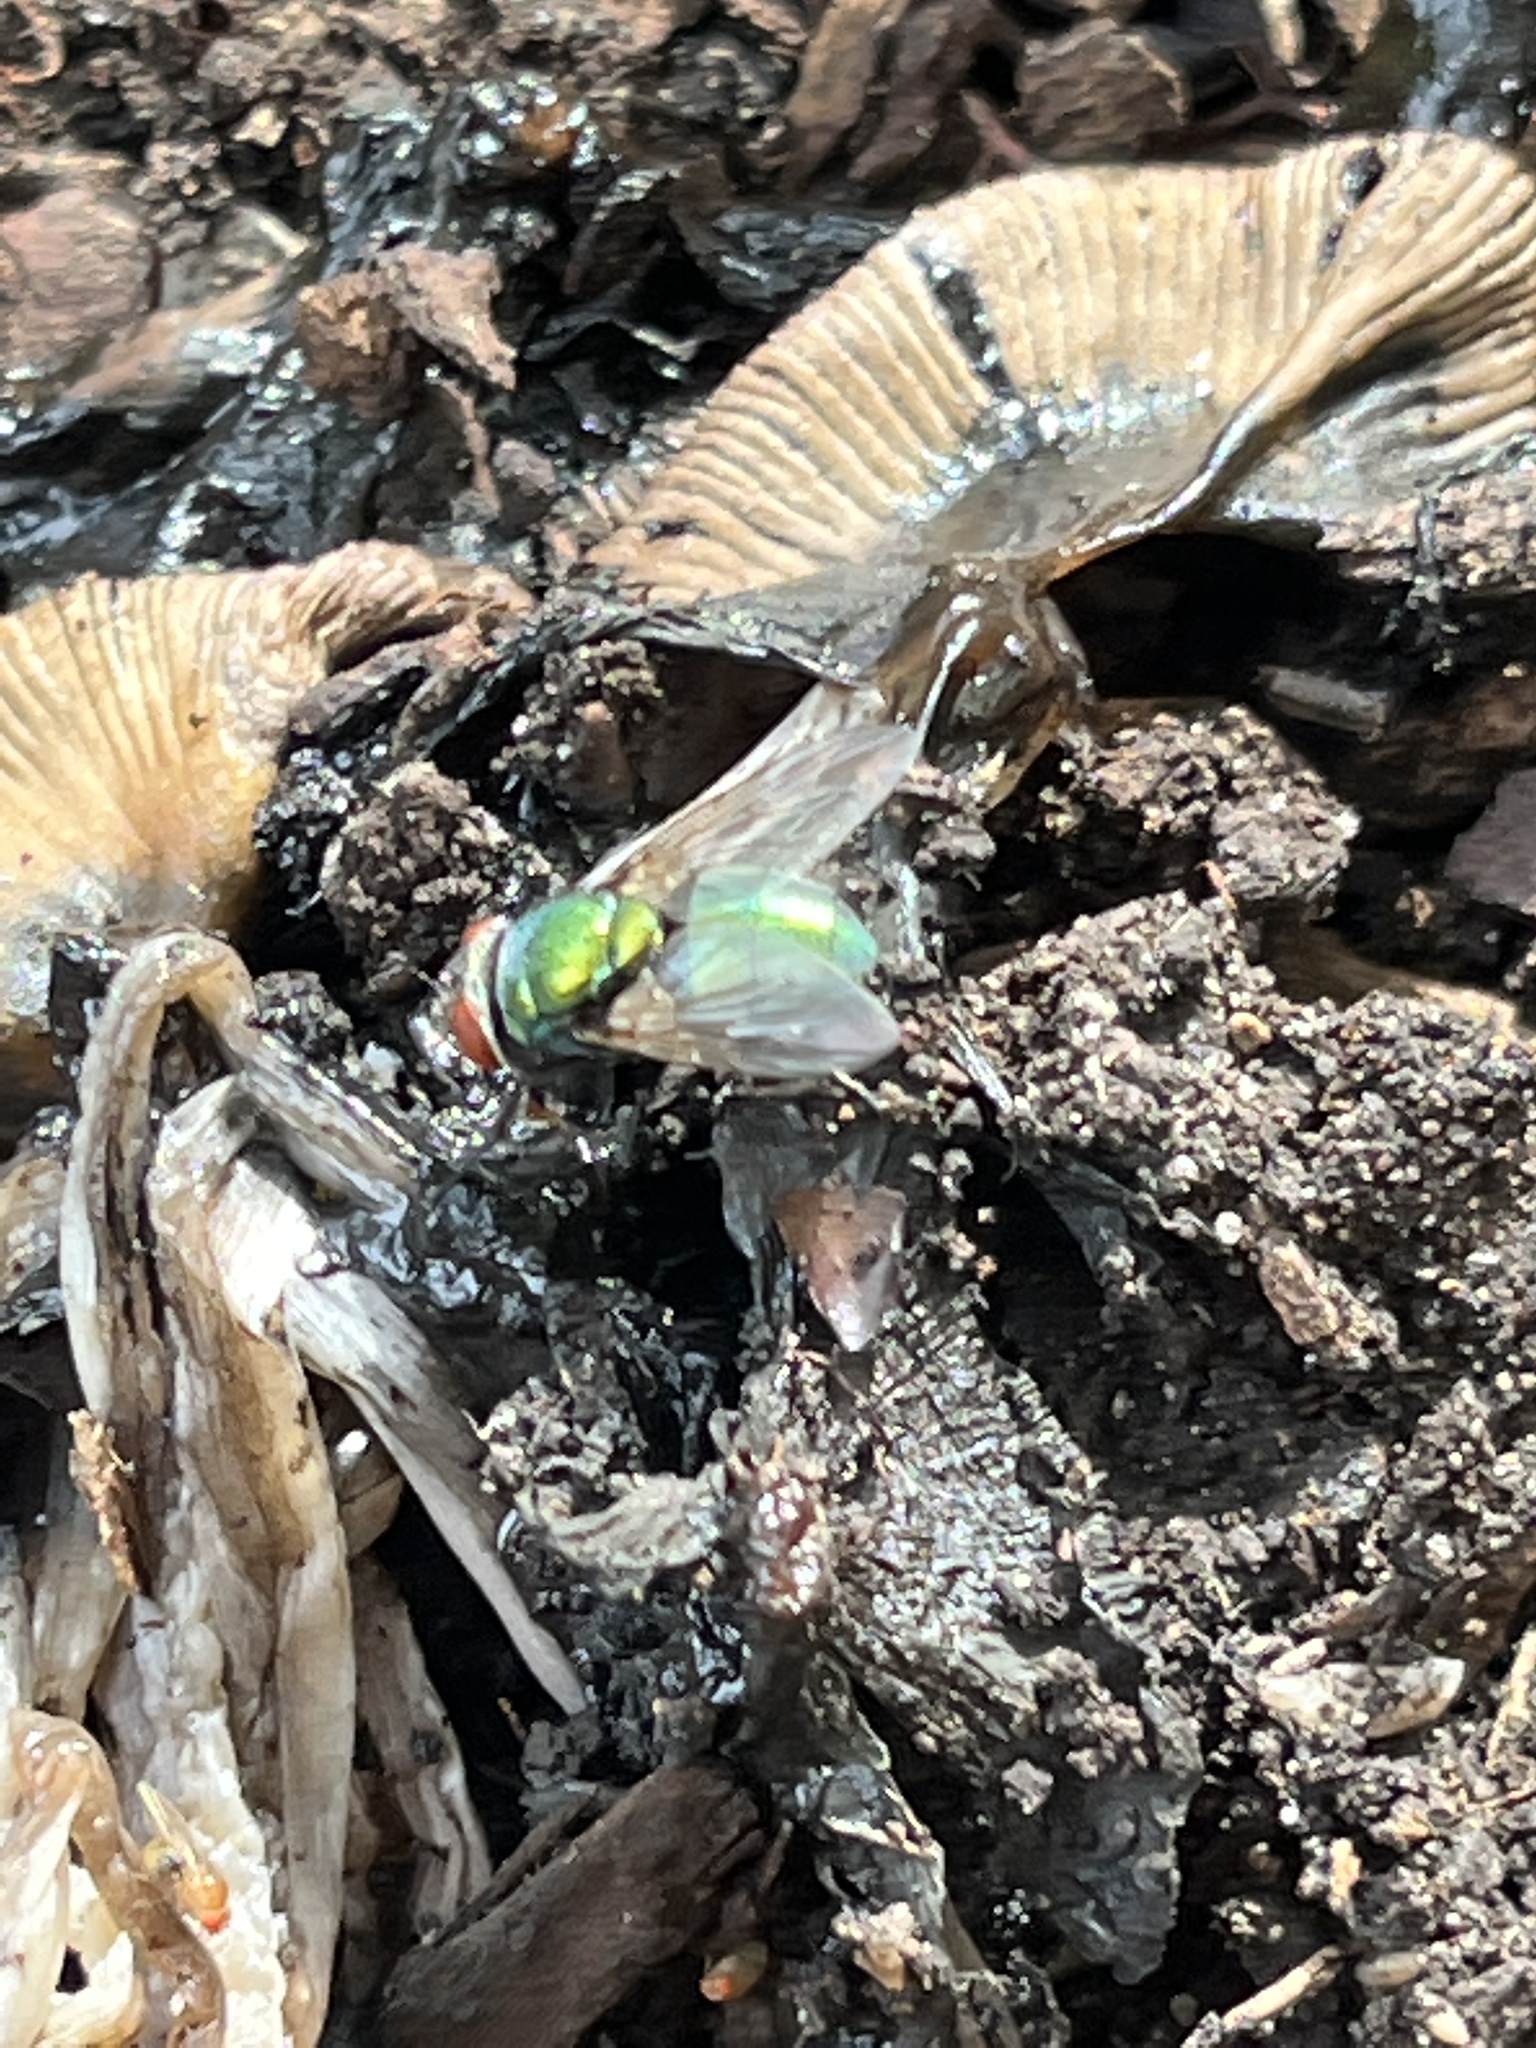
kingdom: Animalia
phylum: Arthropoda
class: Insecta
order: Diptera
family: Calliphoridae
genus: Lucilia
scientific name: Lucilia
